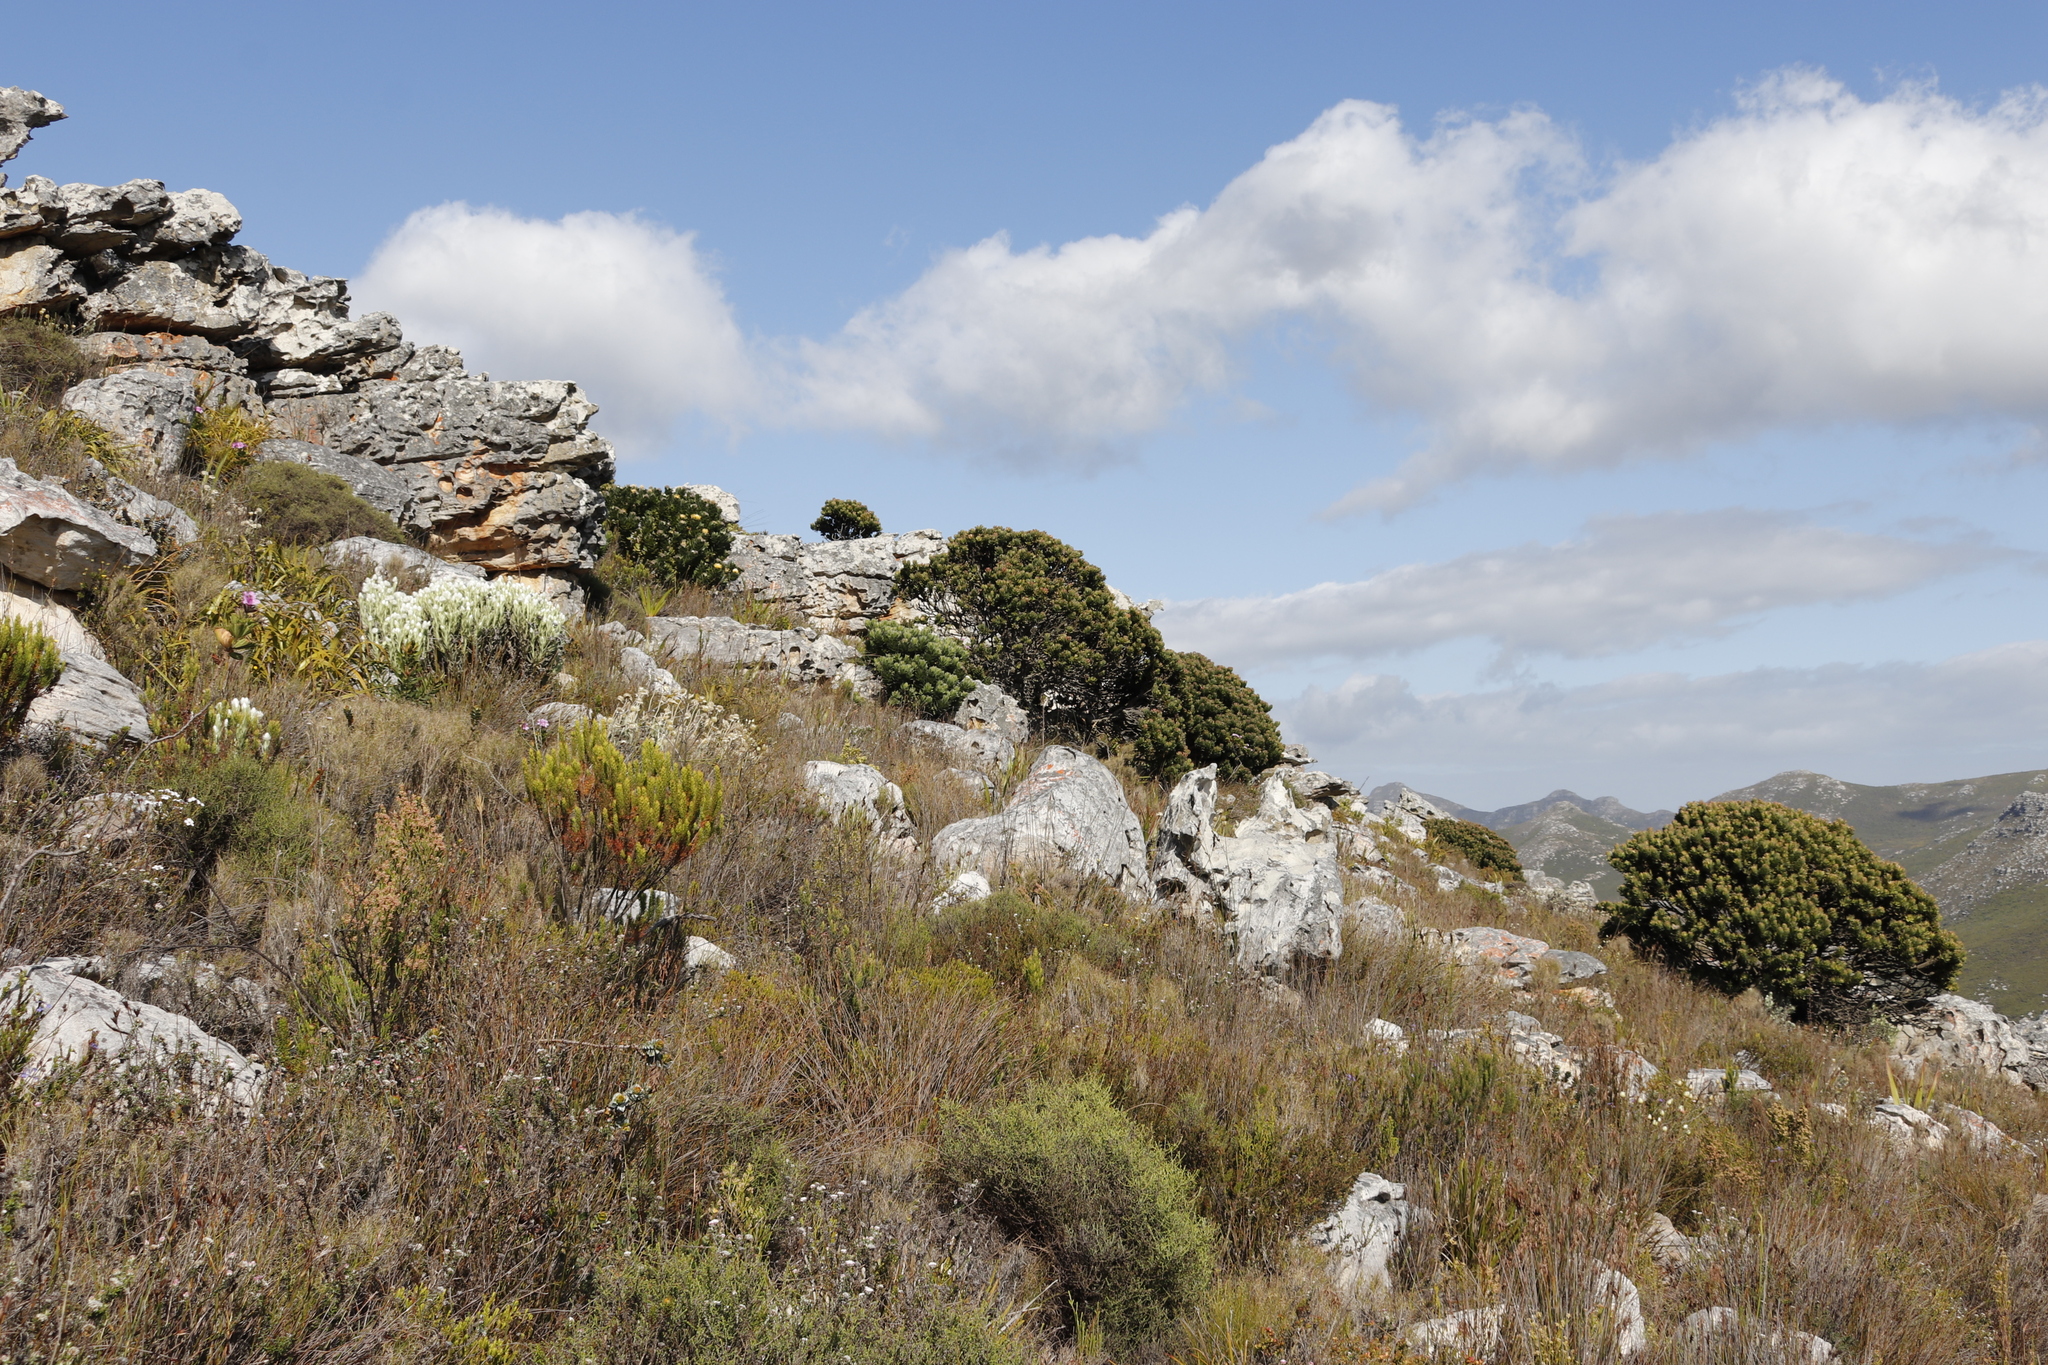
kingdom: Plantae
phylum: Tracheophyta
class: Magnoliopsida
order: Proteales
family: Proteaceae
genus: Mimetes
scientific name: Mimetes fimbriifolius
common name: Fringed bottlebrush
